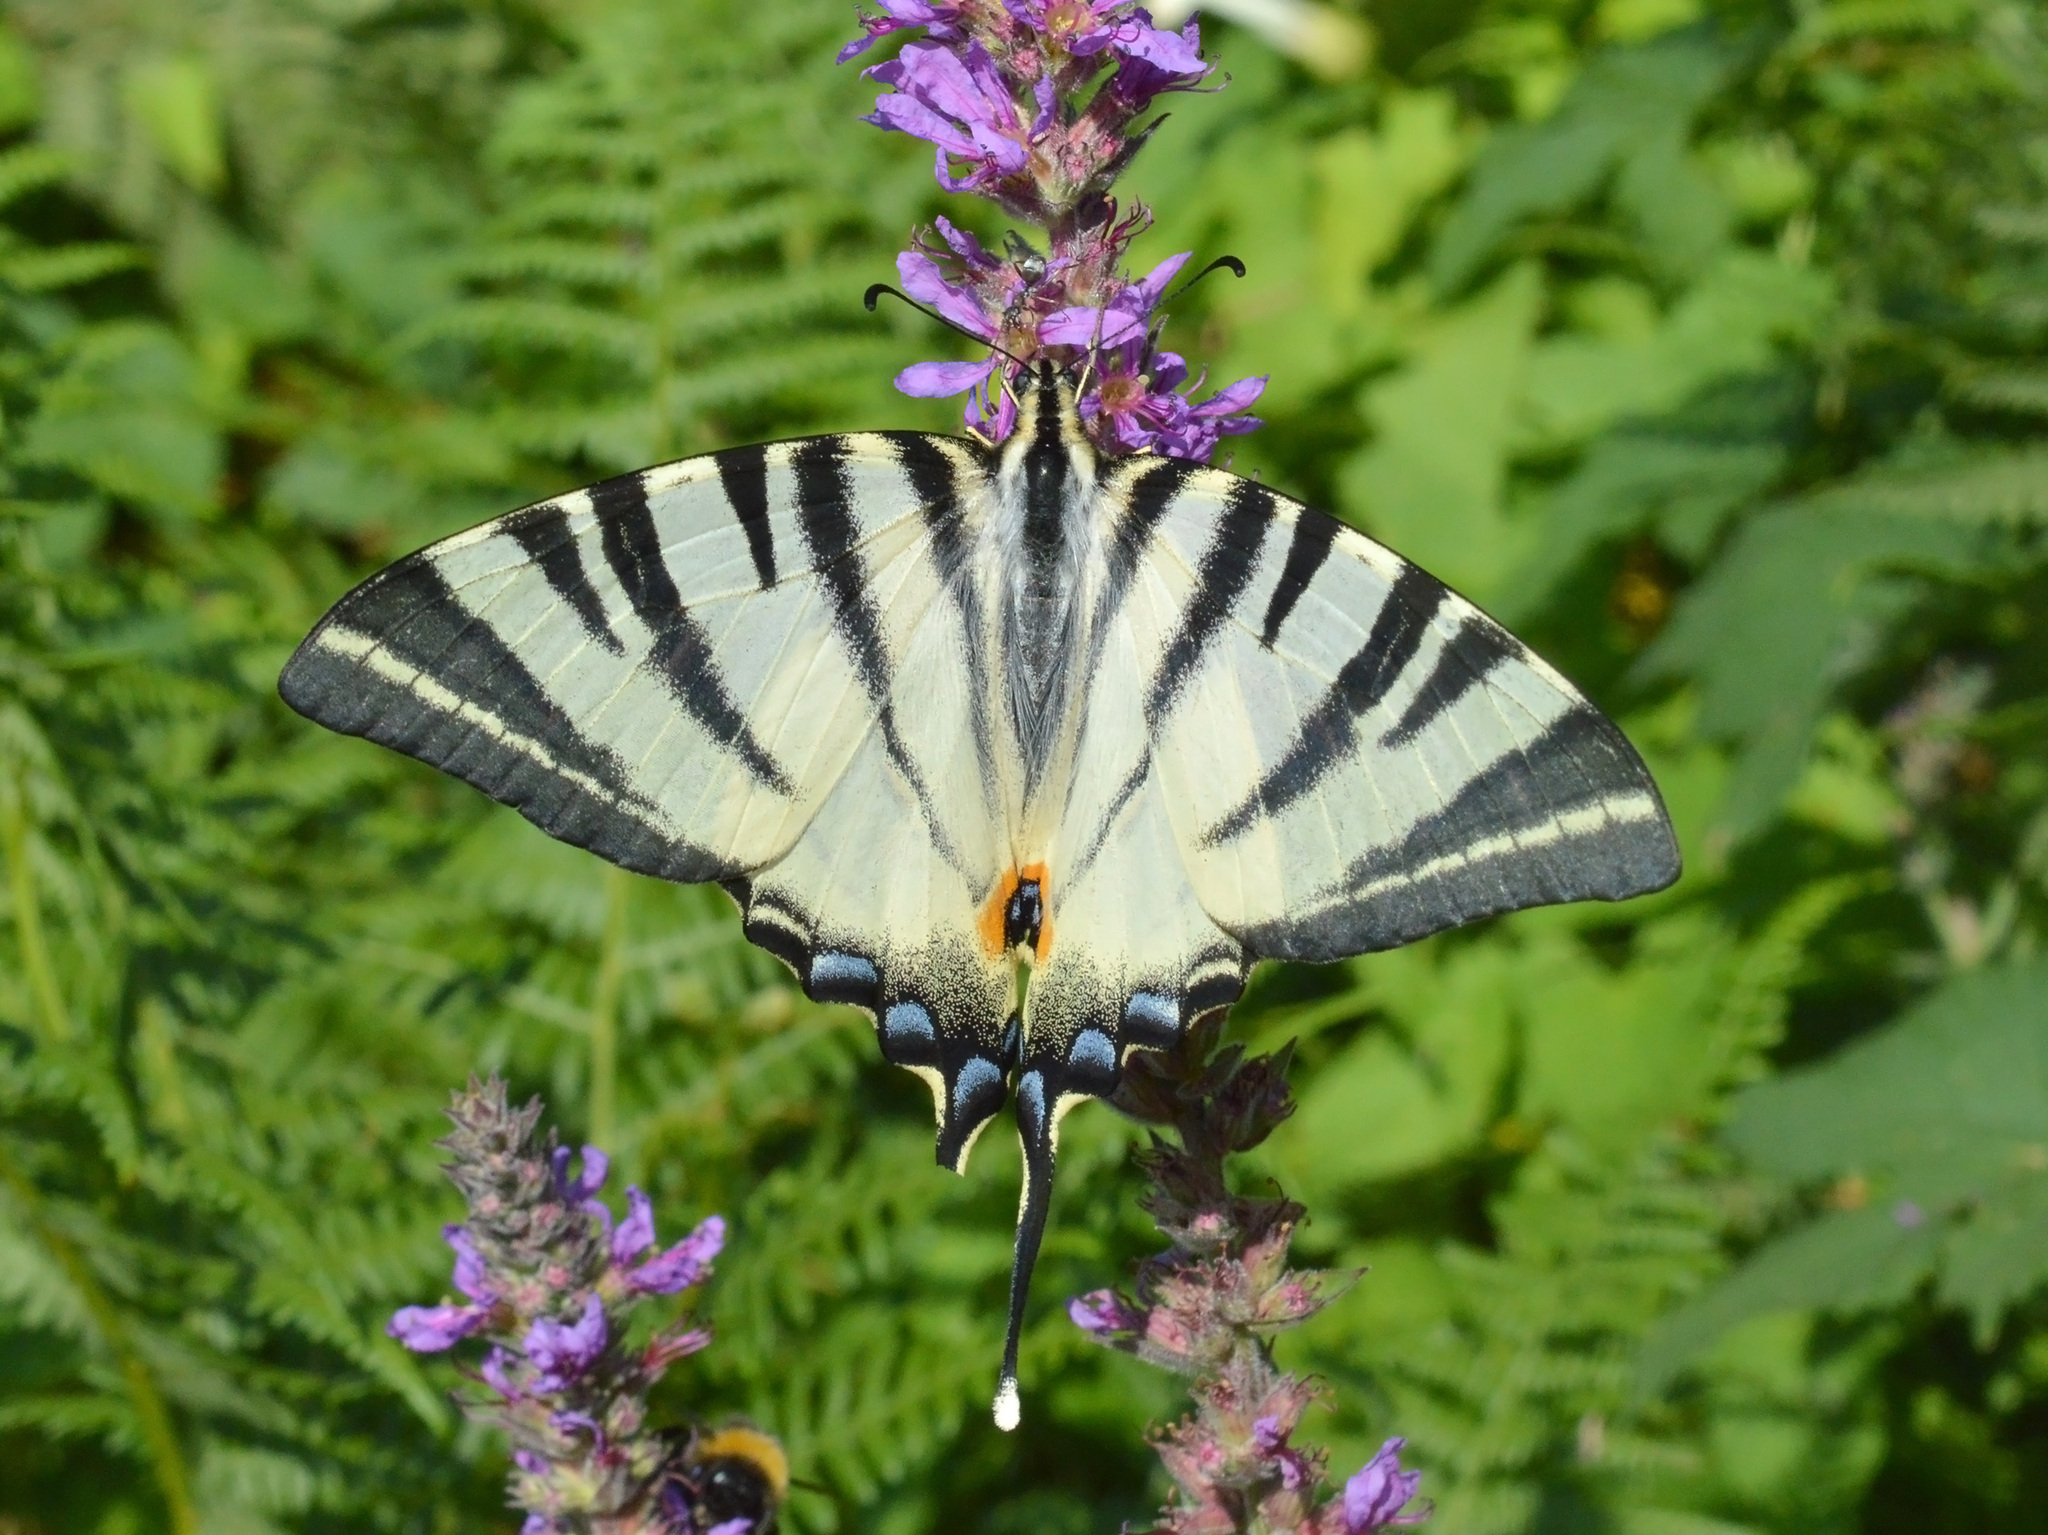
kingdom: Animalia
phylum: Arthropoda
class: Insecta
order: Lepidoptera
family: Papilionidae
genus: Iphiclides
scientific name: Iphiclides podalirius
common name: Scarce swallowtail
